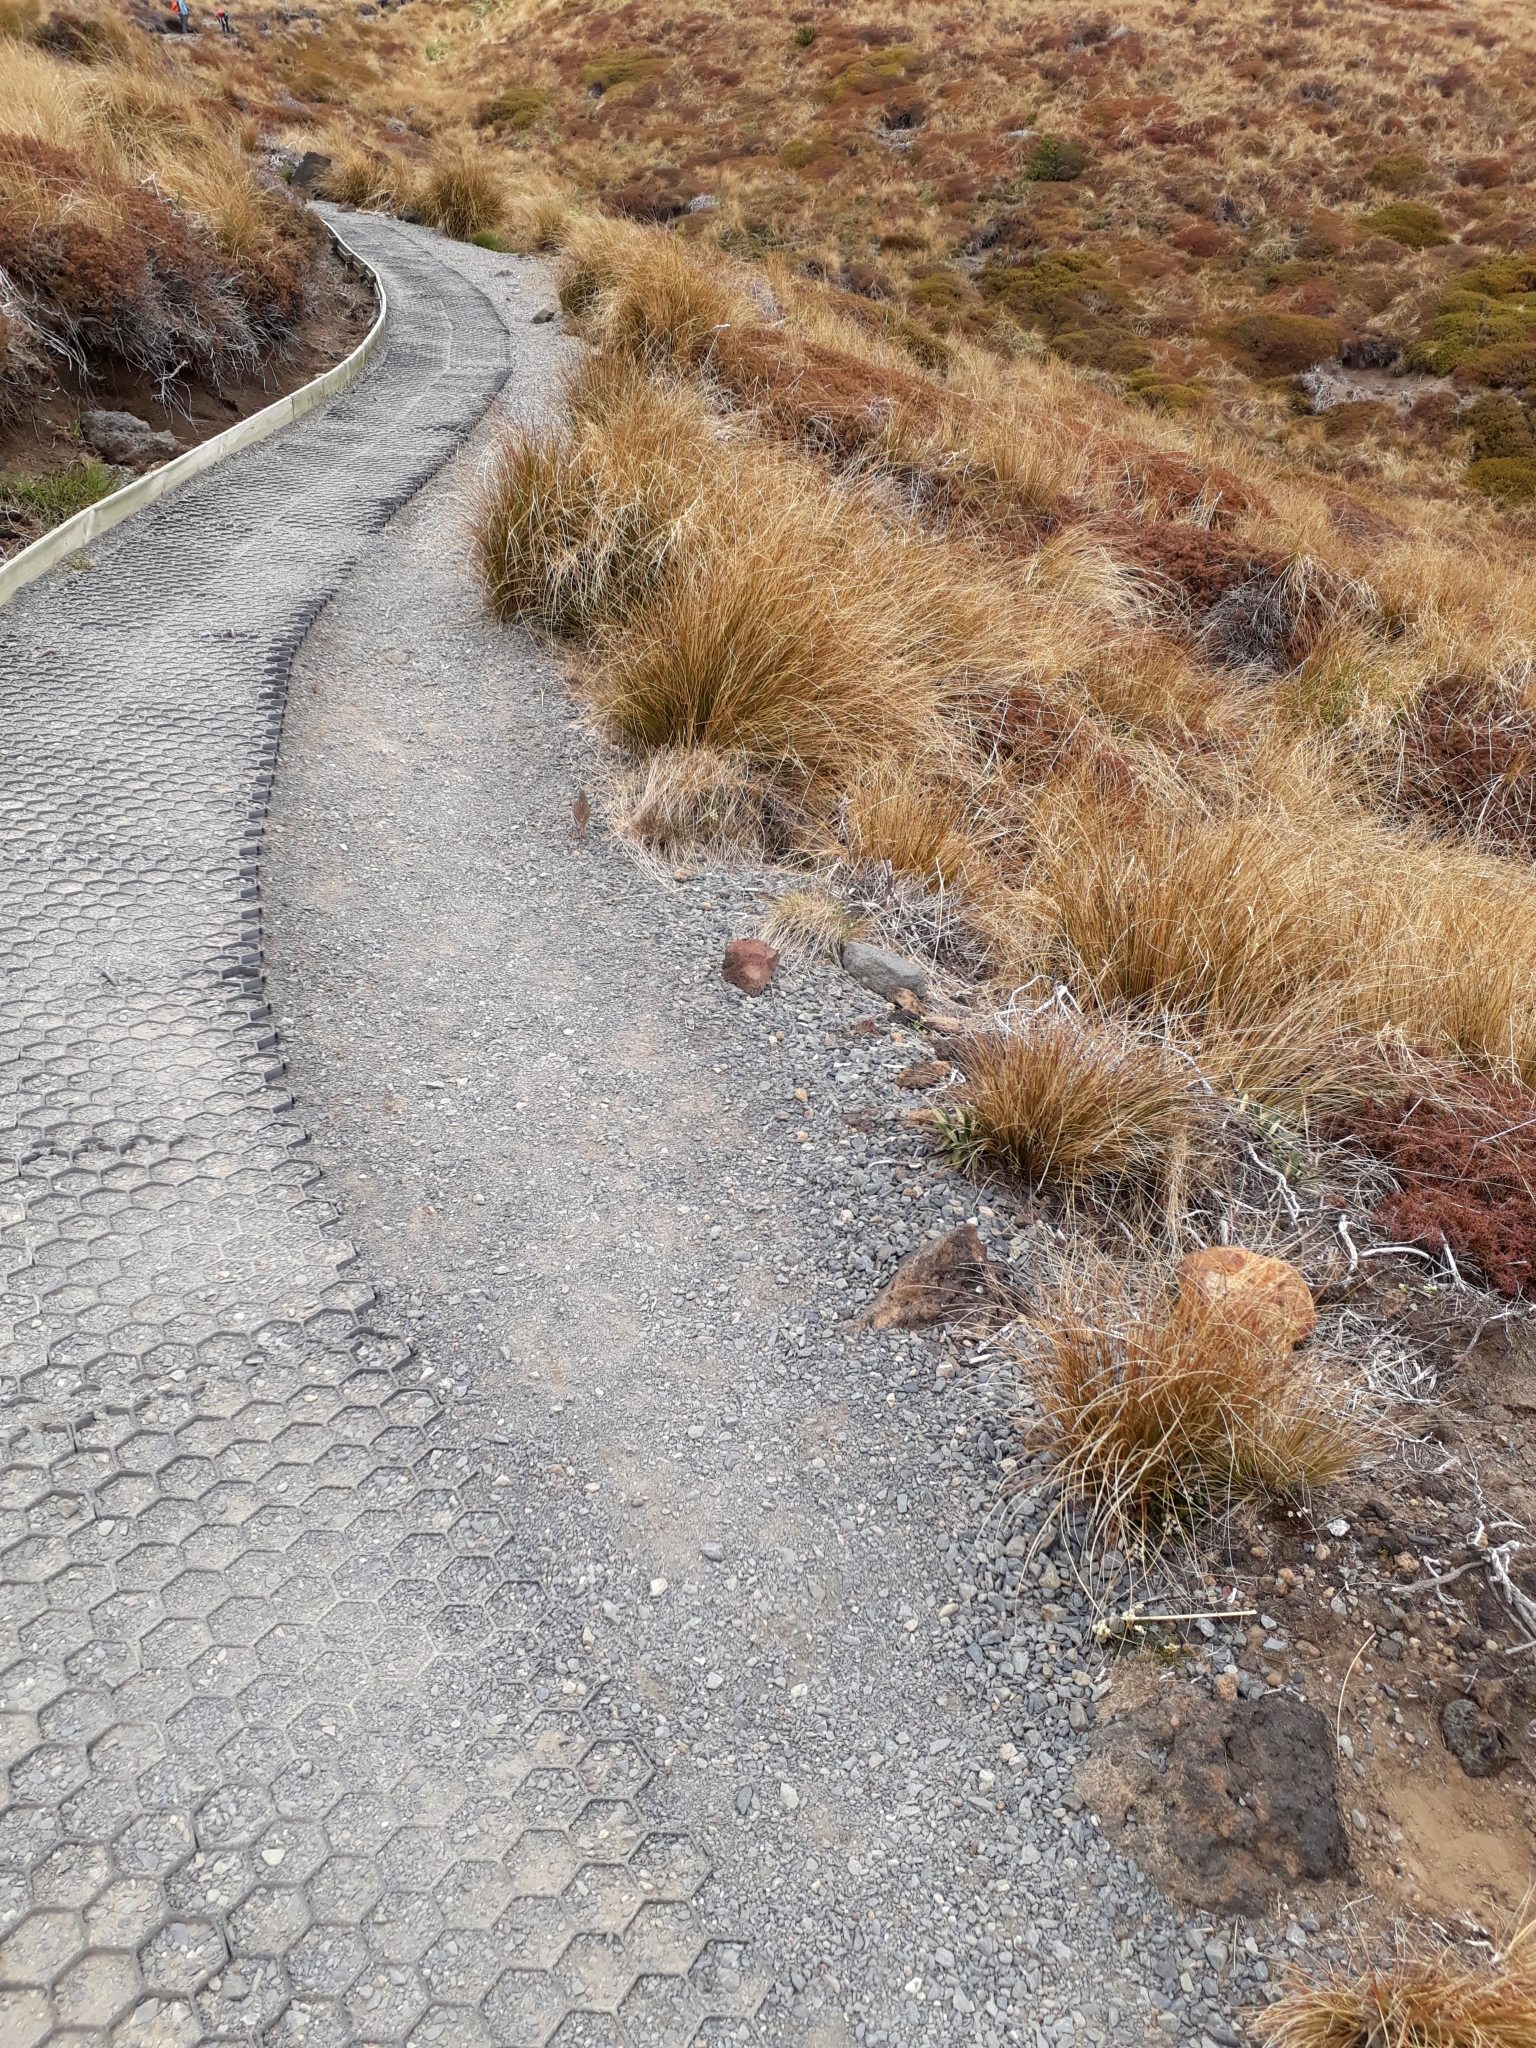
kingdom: Animalia
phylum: Chordata
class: Aves
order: Passeriformes
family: Motacillidae
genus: Anthus
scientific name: Anthus novaeseelandiae
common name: New zealand pipit
